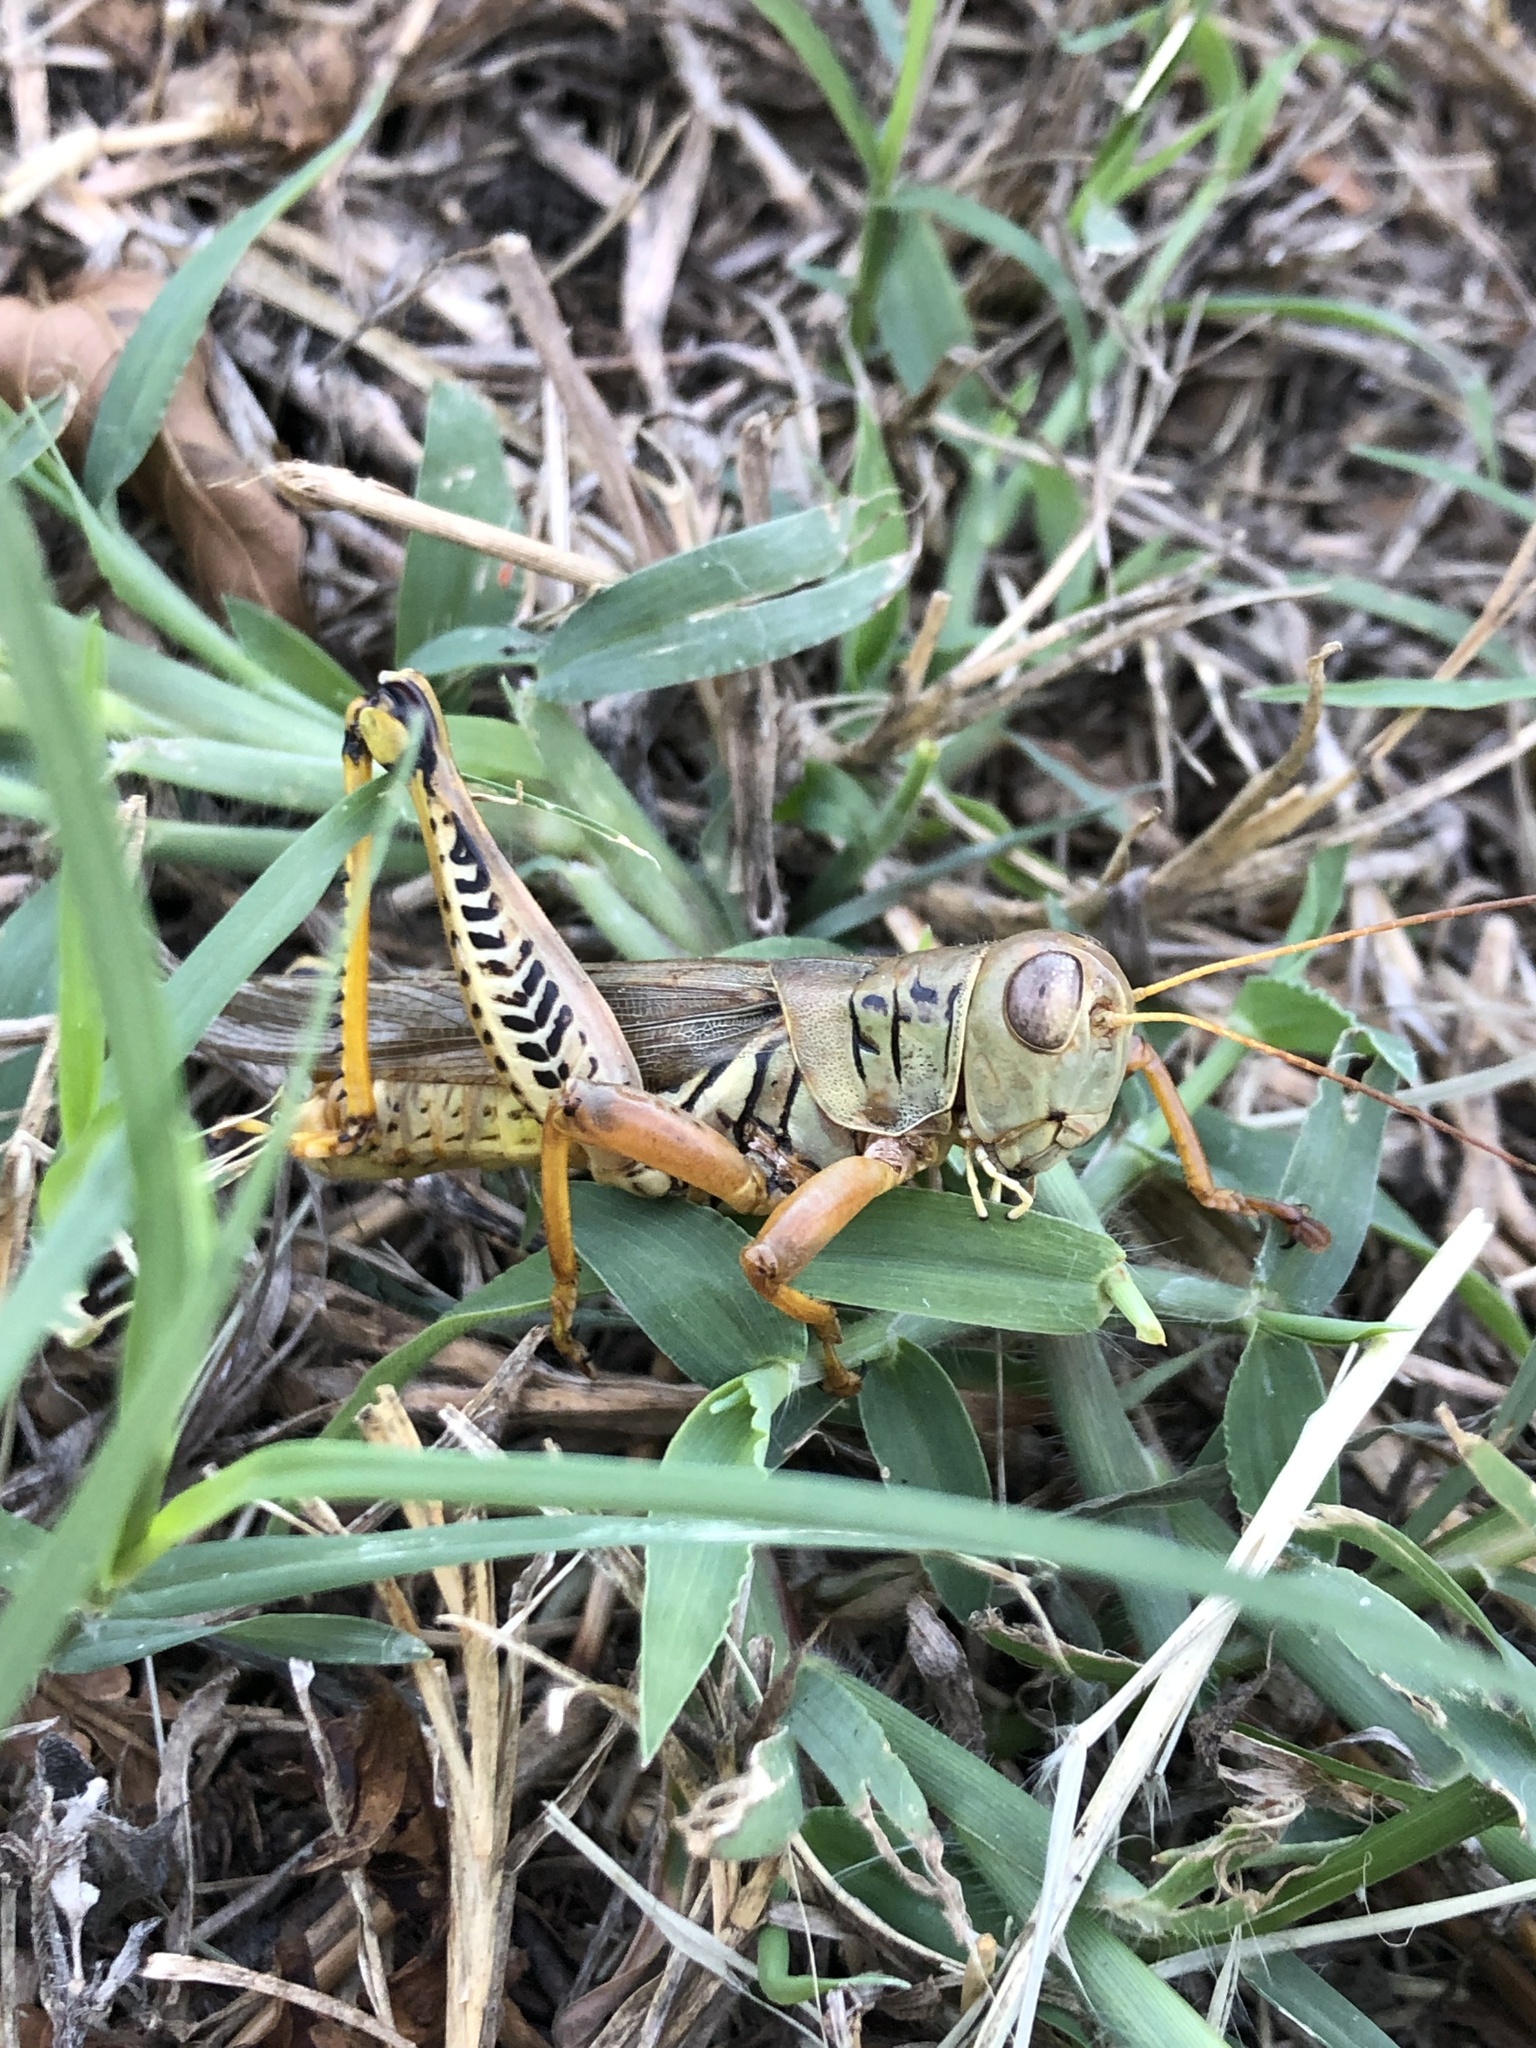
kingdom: Animalia
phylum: Arthropoda
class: Insecta
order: Orthoptera
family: Acrididae
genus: Melanoplus
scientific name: Melanoplus differentialis
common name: Differential grasshopper
